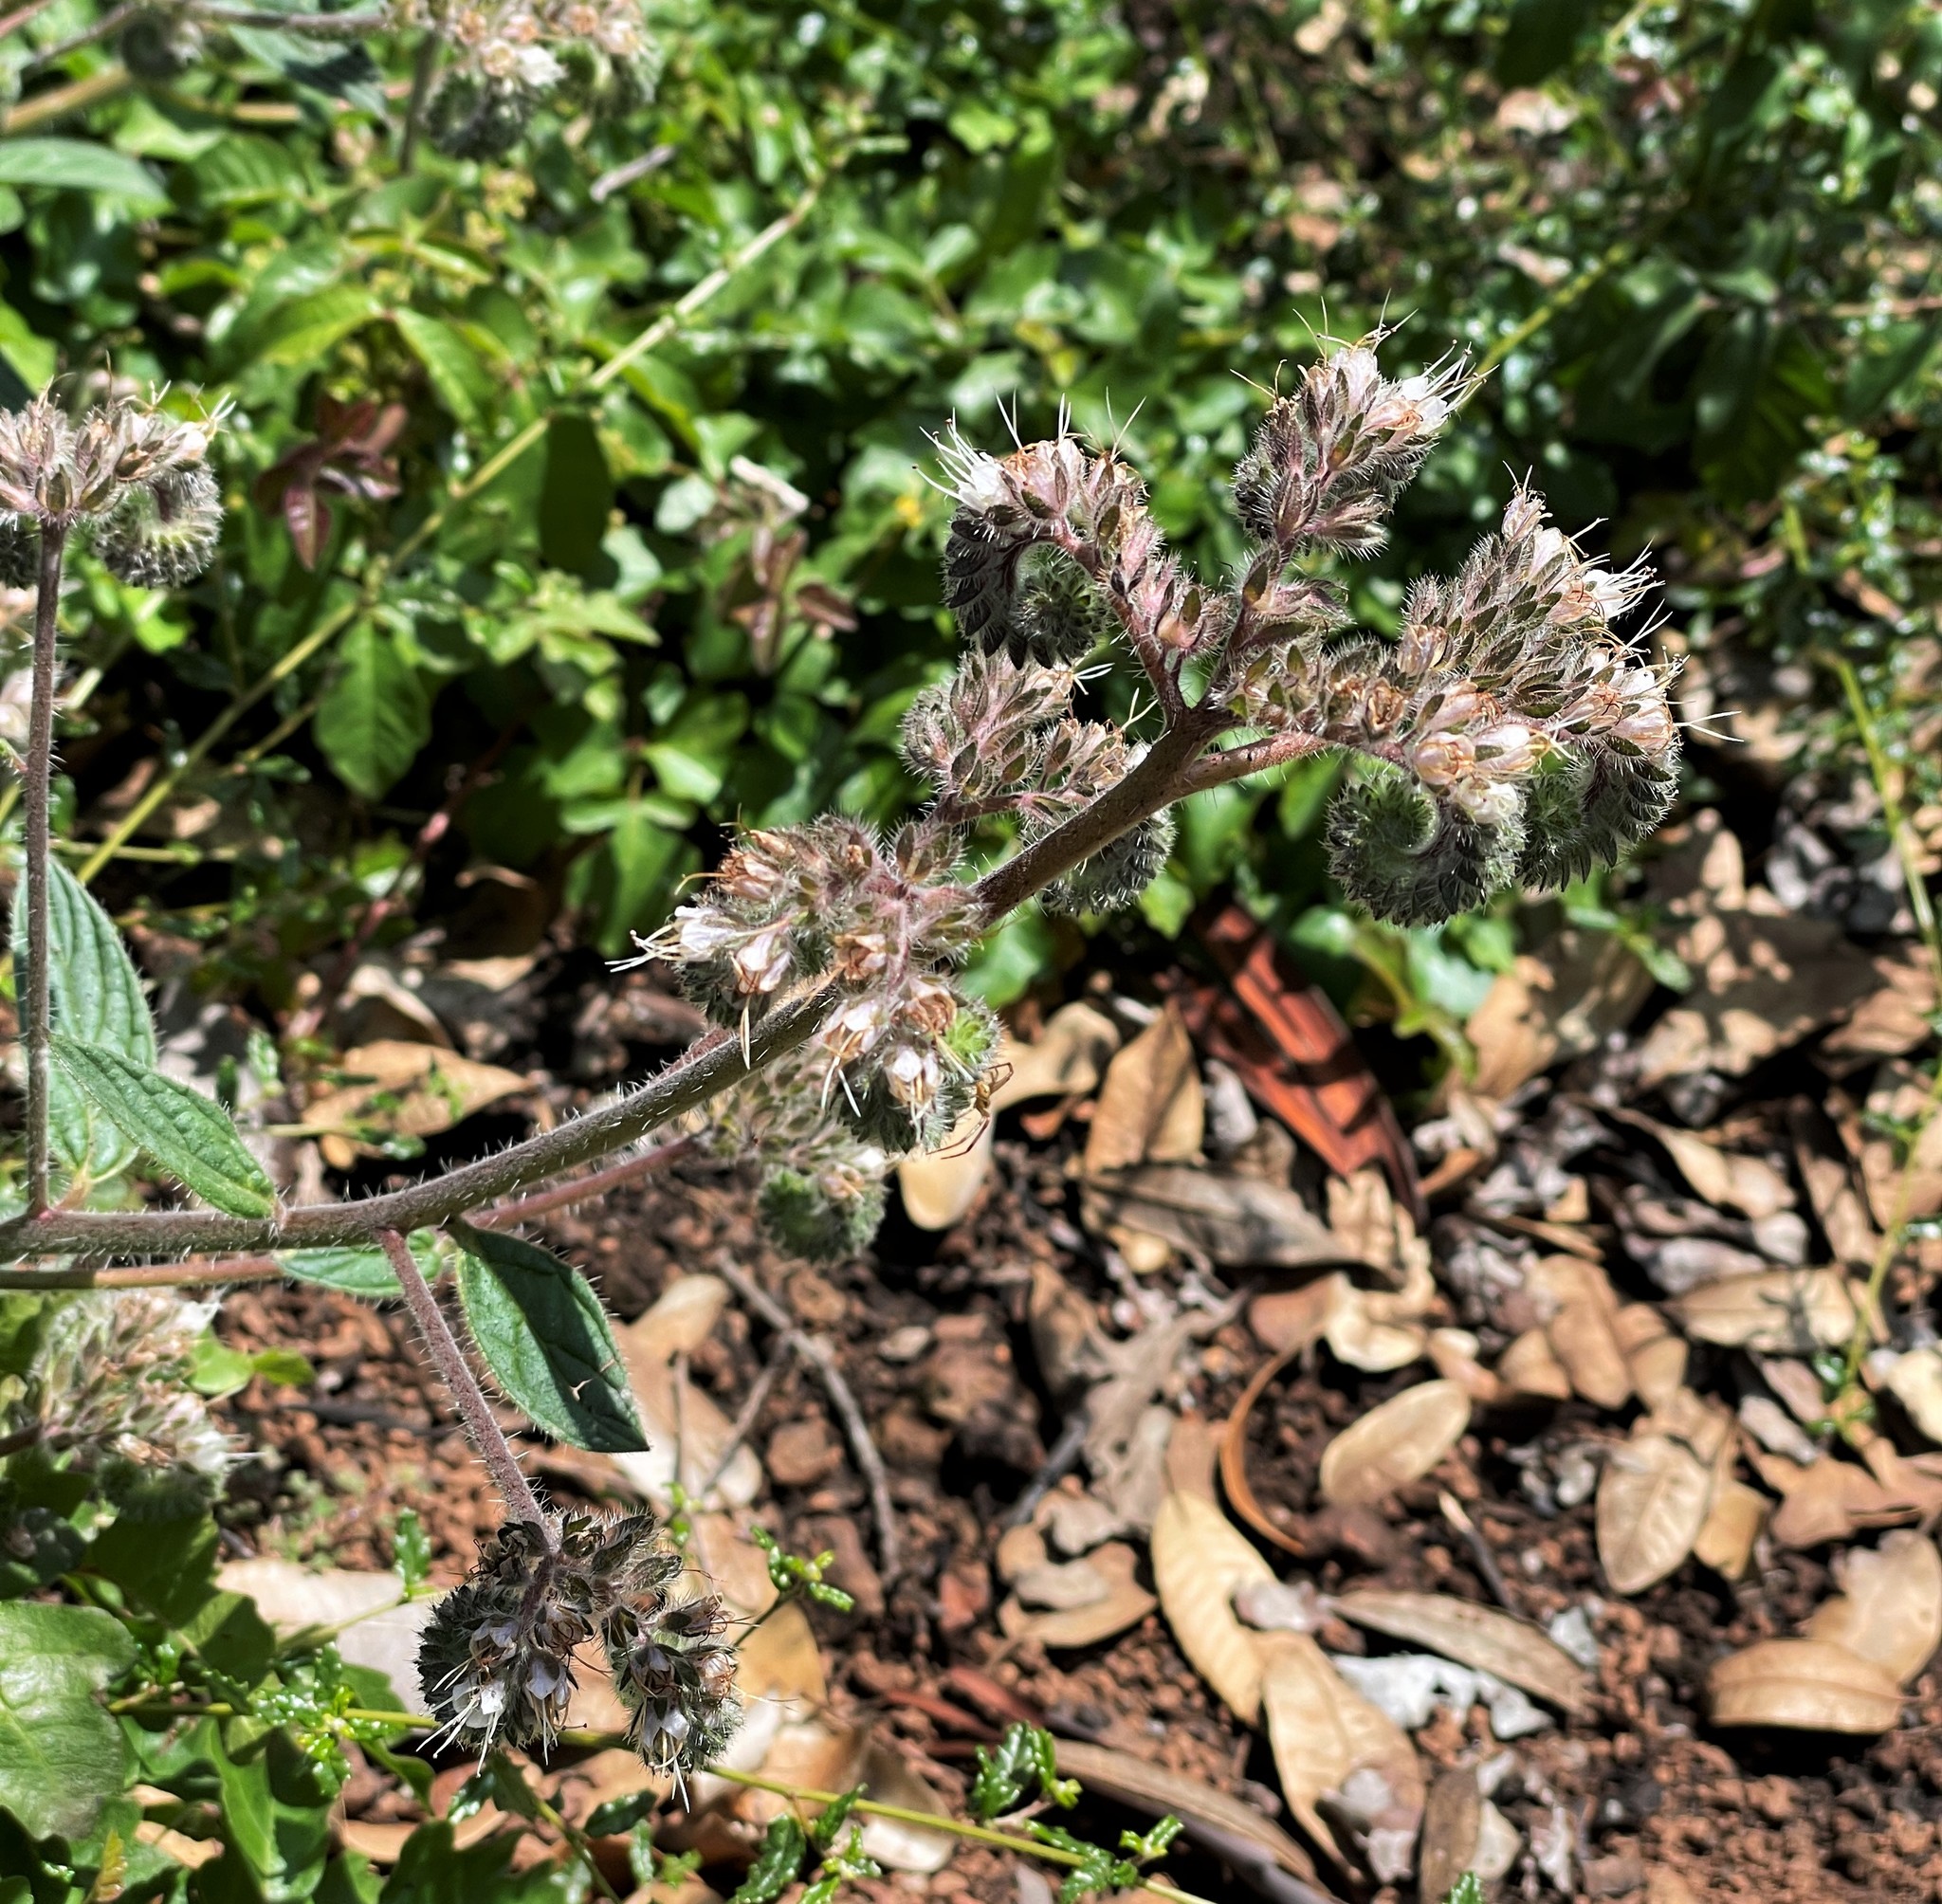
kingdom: Plantae
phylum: Tracheophyta
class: Magnoliopsida
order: Boraginales
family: Hydrophyllaceae
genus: Phacelia
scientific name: Phacelia californica
